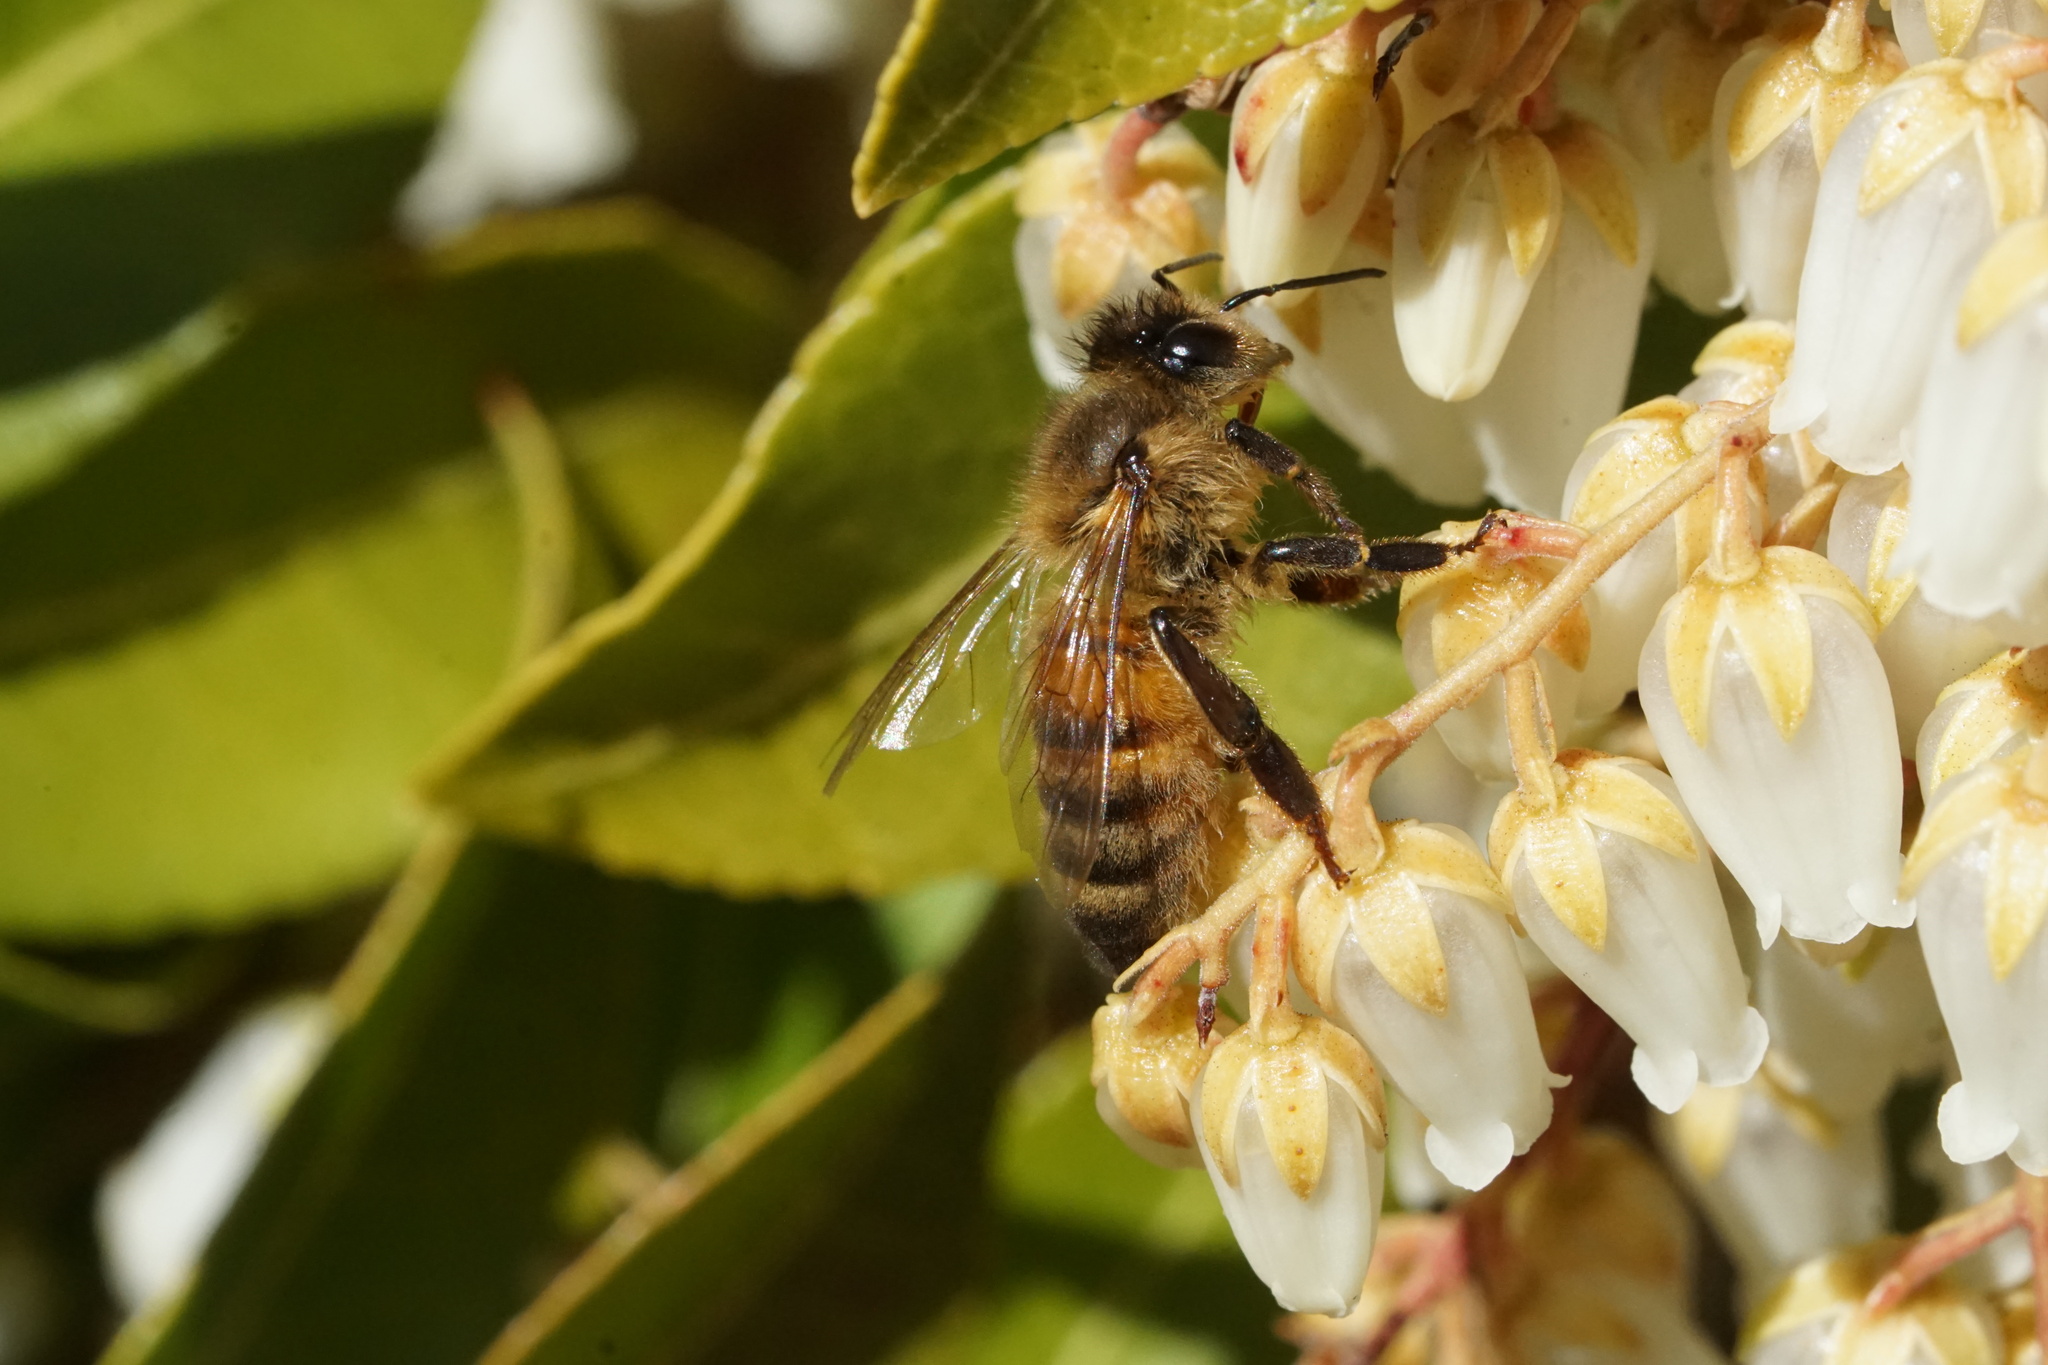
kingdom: Animalia
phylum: Arthropoda
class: Insecta
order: Hymenoptera
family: Apidae
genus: Apis
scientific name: Apis mellifera
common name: Honey bee
